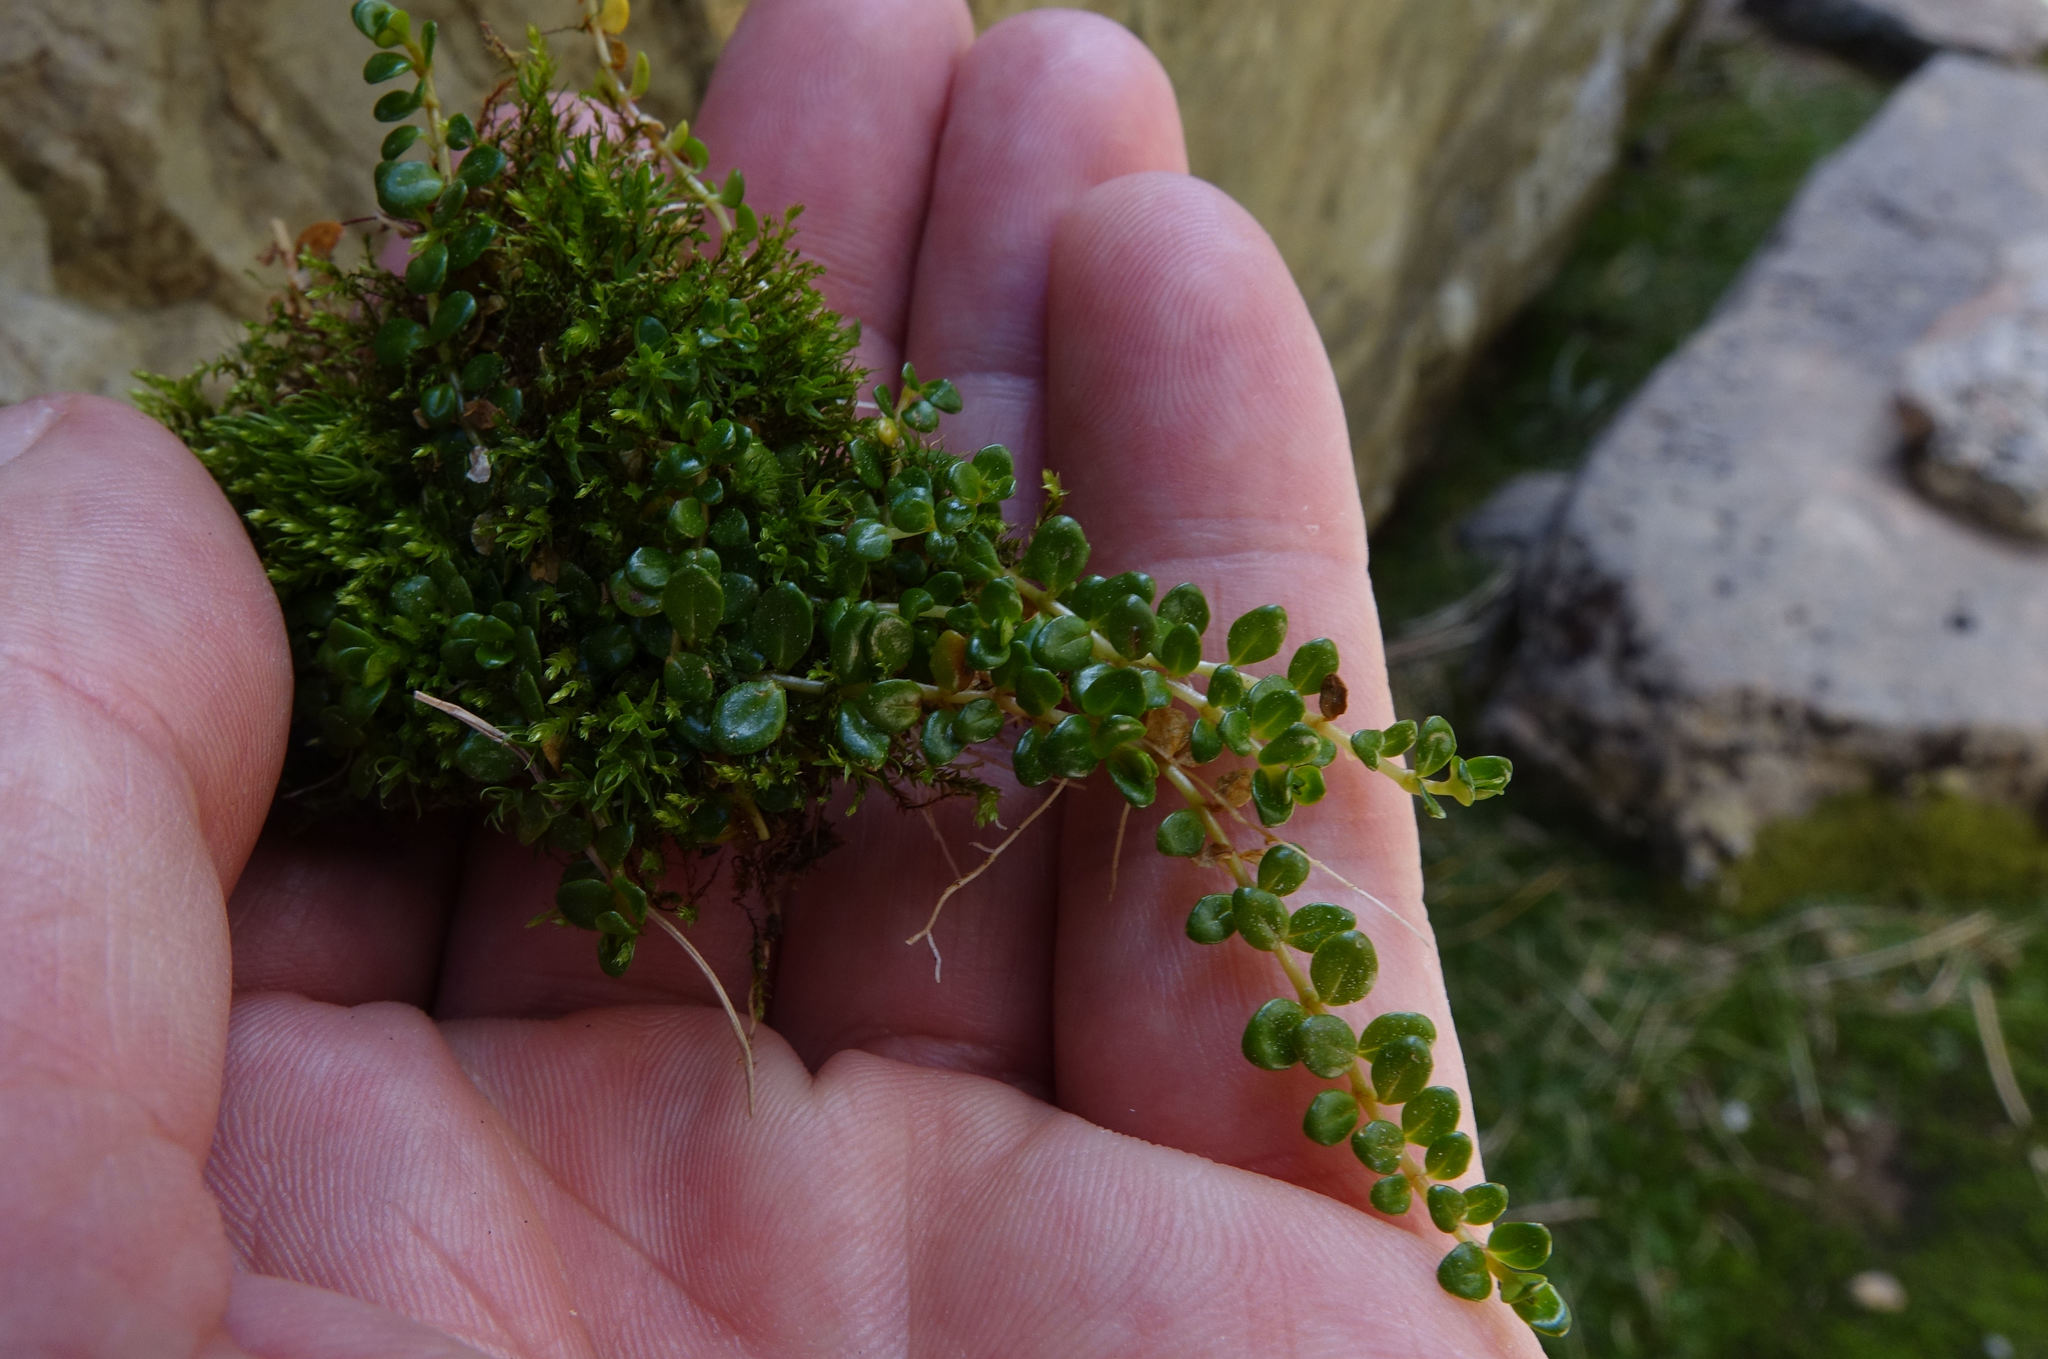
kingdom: Plantae
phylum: Tracheophyta
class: Magnoliopsida
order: Myrtales
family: Onagraceae
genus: Epilobium
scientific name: Epilobium pernitens
